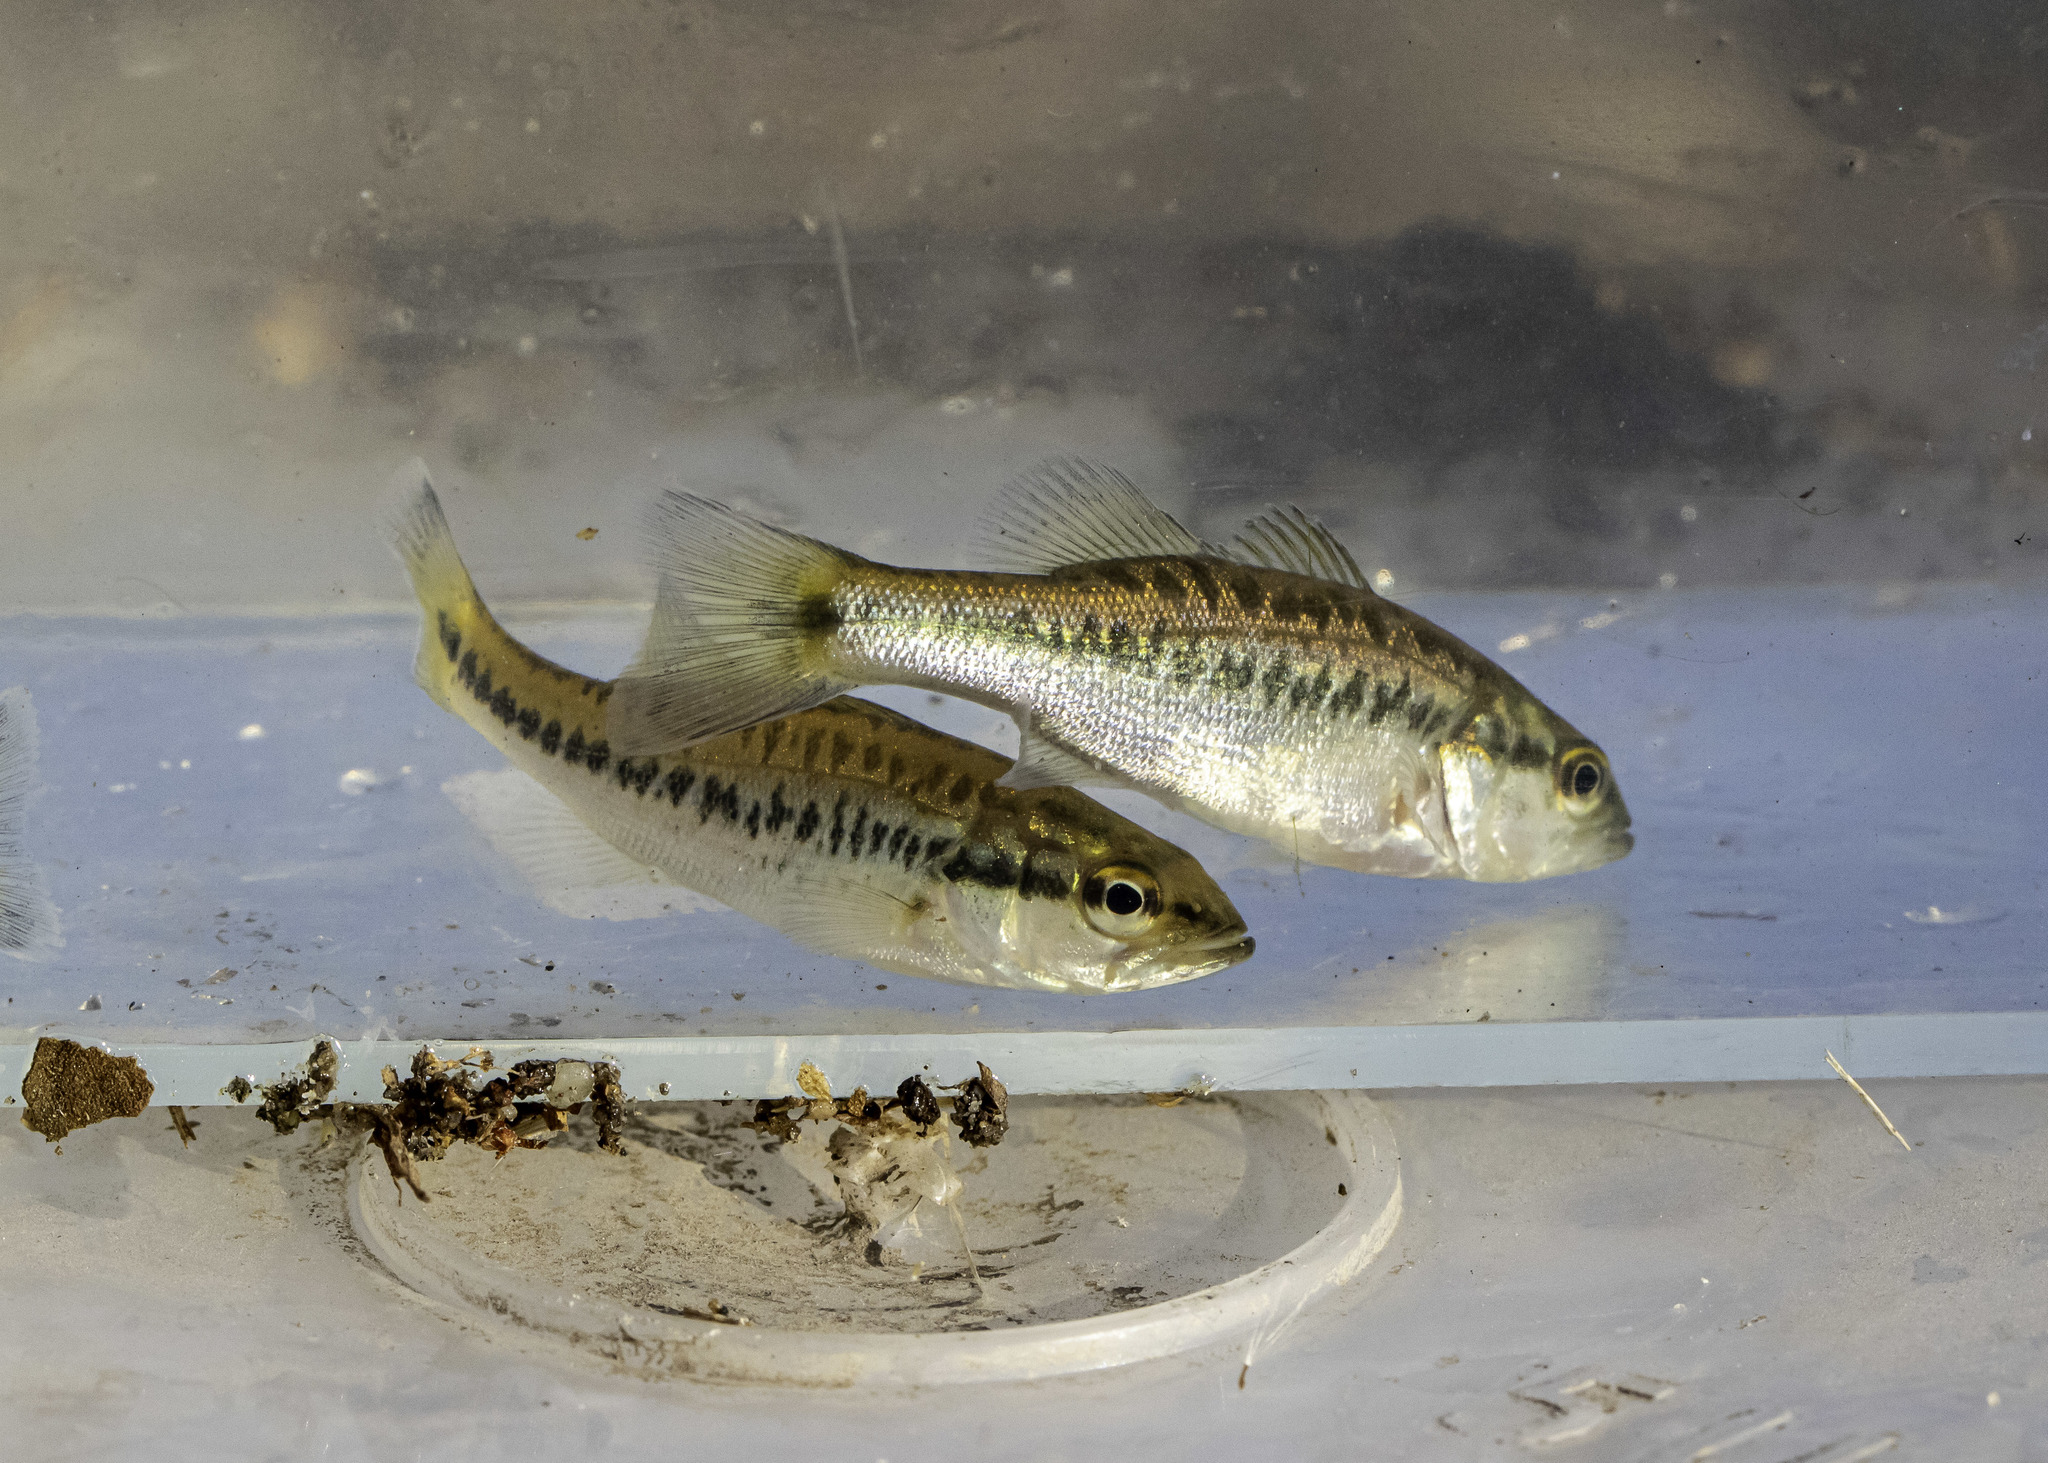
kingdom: Animalia
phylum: Chordata
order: Perciformes
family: Centrarchidae
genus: Micropterus
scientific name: Micropterus
